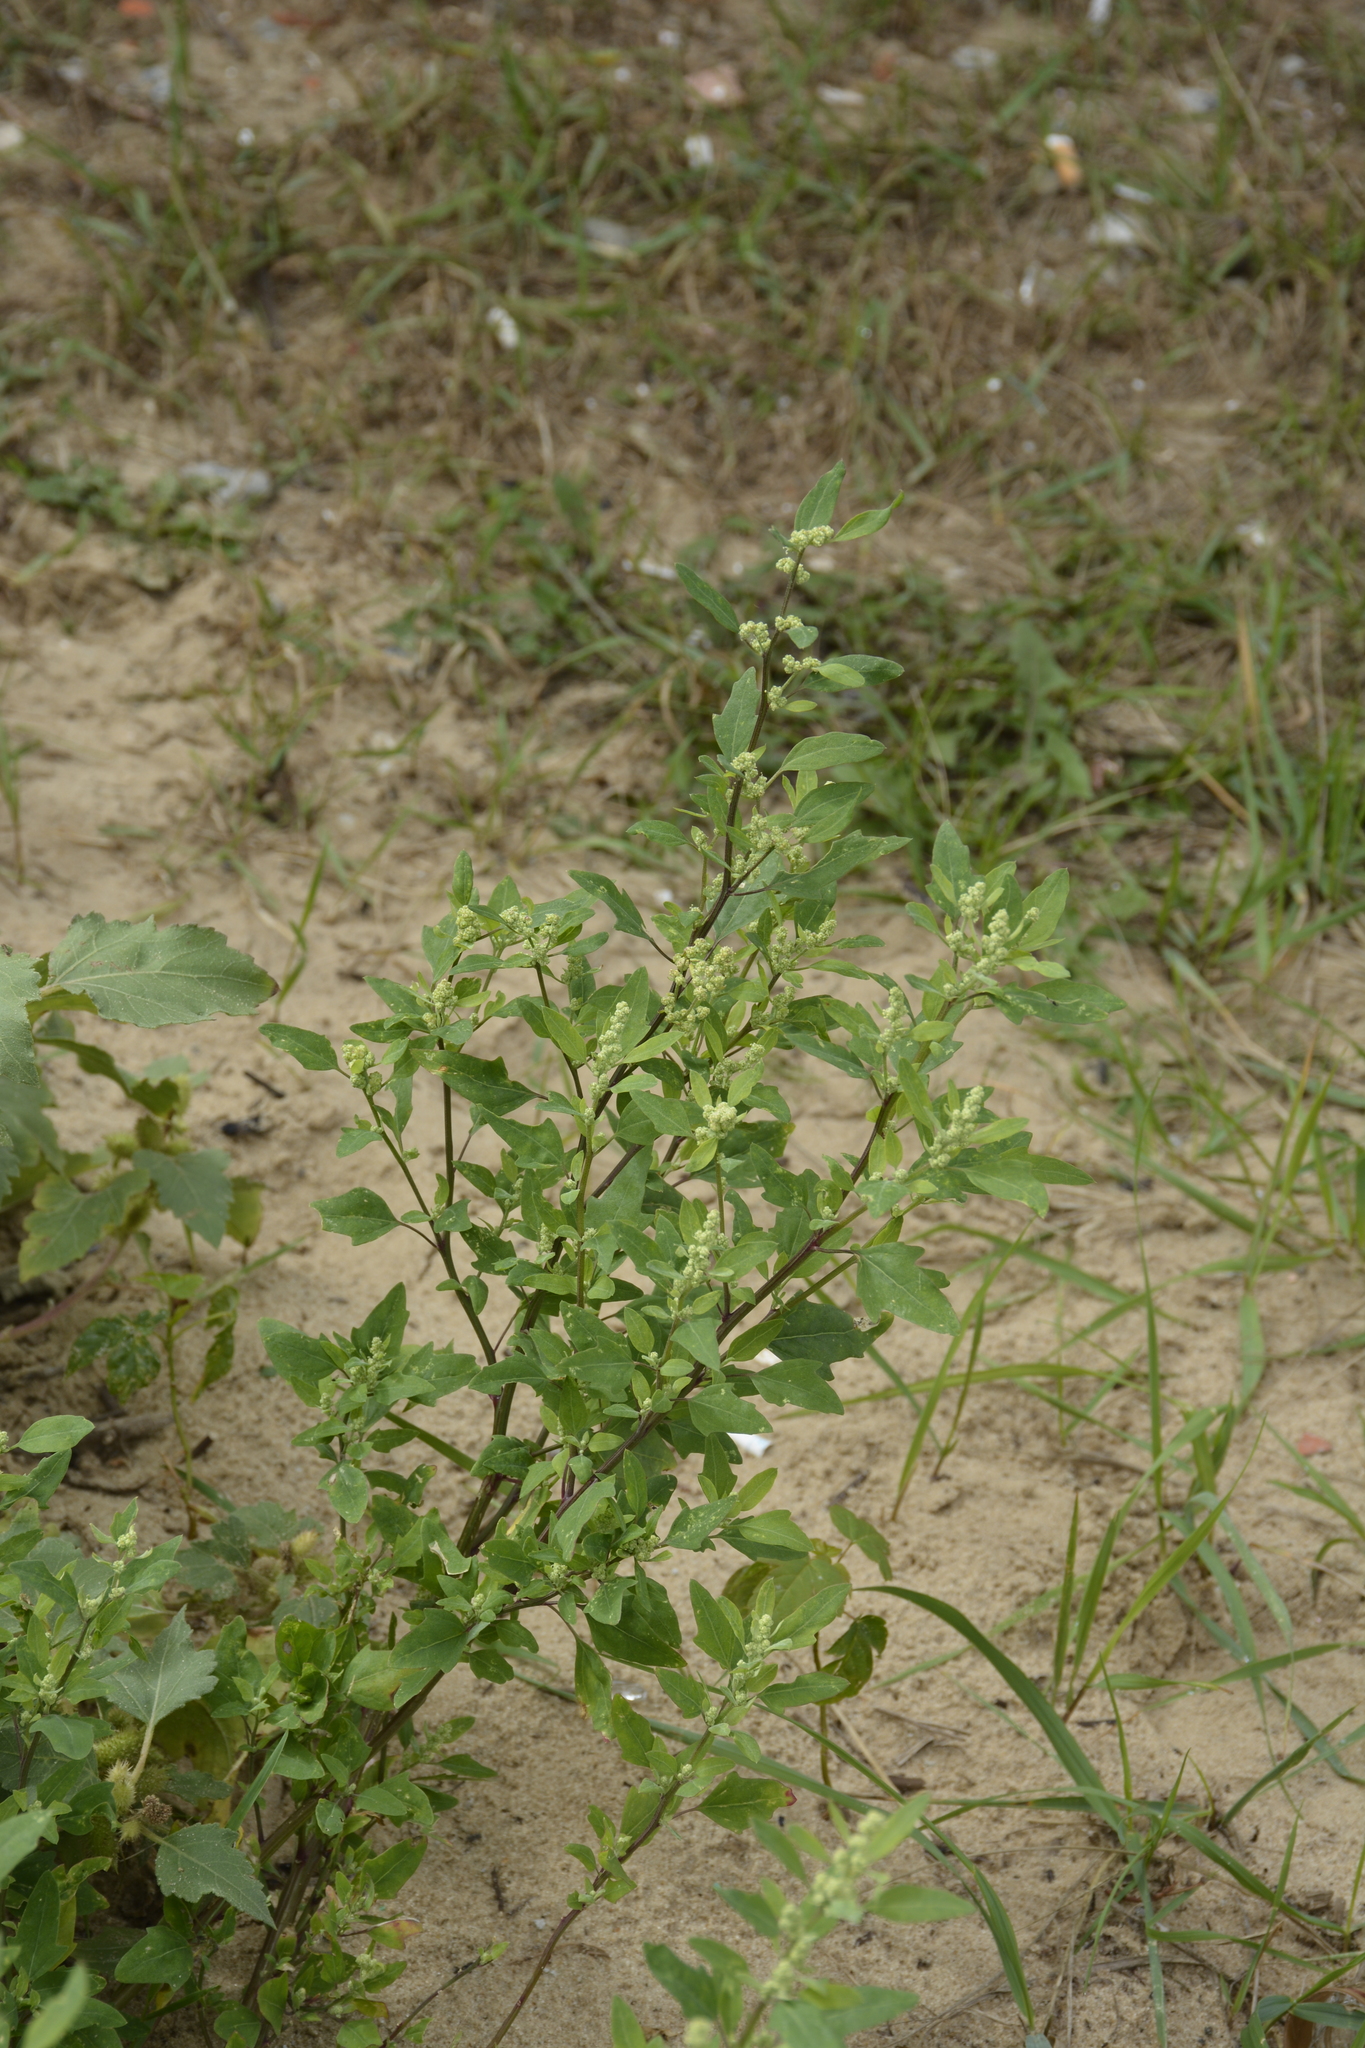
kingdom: Plantae
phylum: Tracheophyta
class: Magnoliopsida
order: Caryophyllales
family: Amaranthaceae
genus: Chenopodium
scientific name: Chenopodium acerifolium
